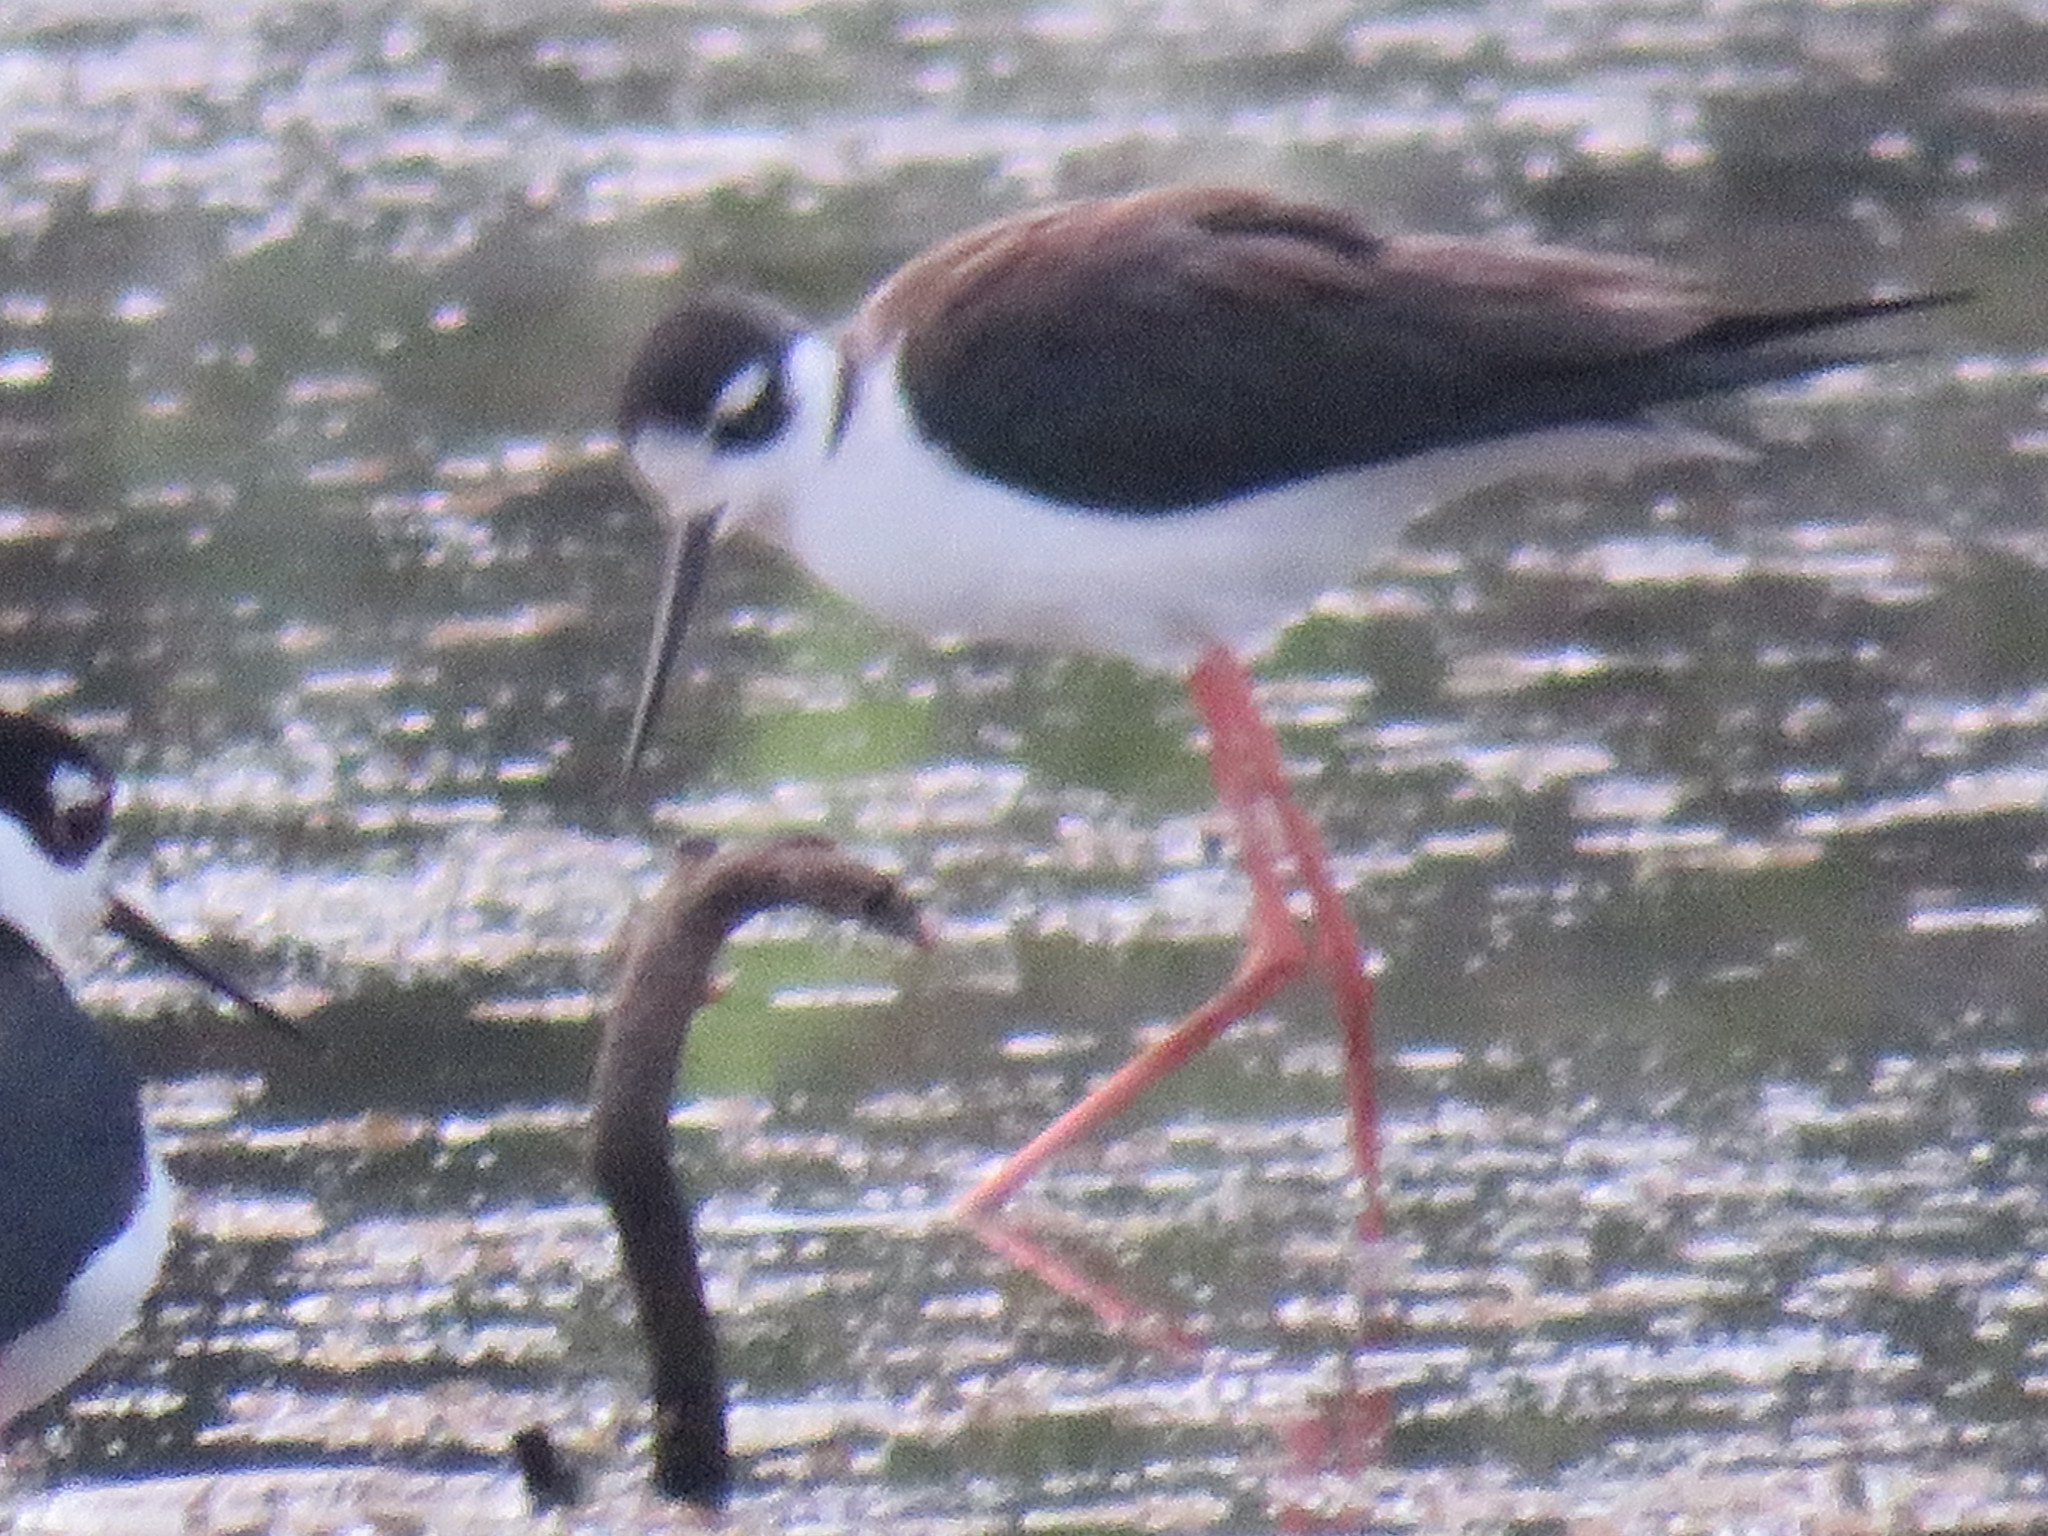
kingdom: Animalia
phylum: Chordata
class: Aves
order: Charadriiformes
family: Recurvirostridae
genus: Himantopus
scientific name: Himantopus mexicanus
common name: Black-necked stilt
